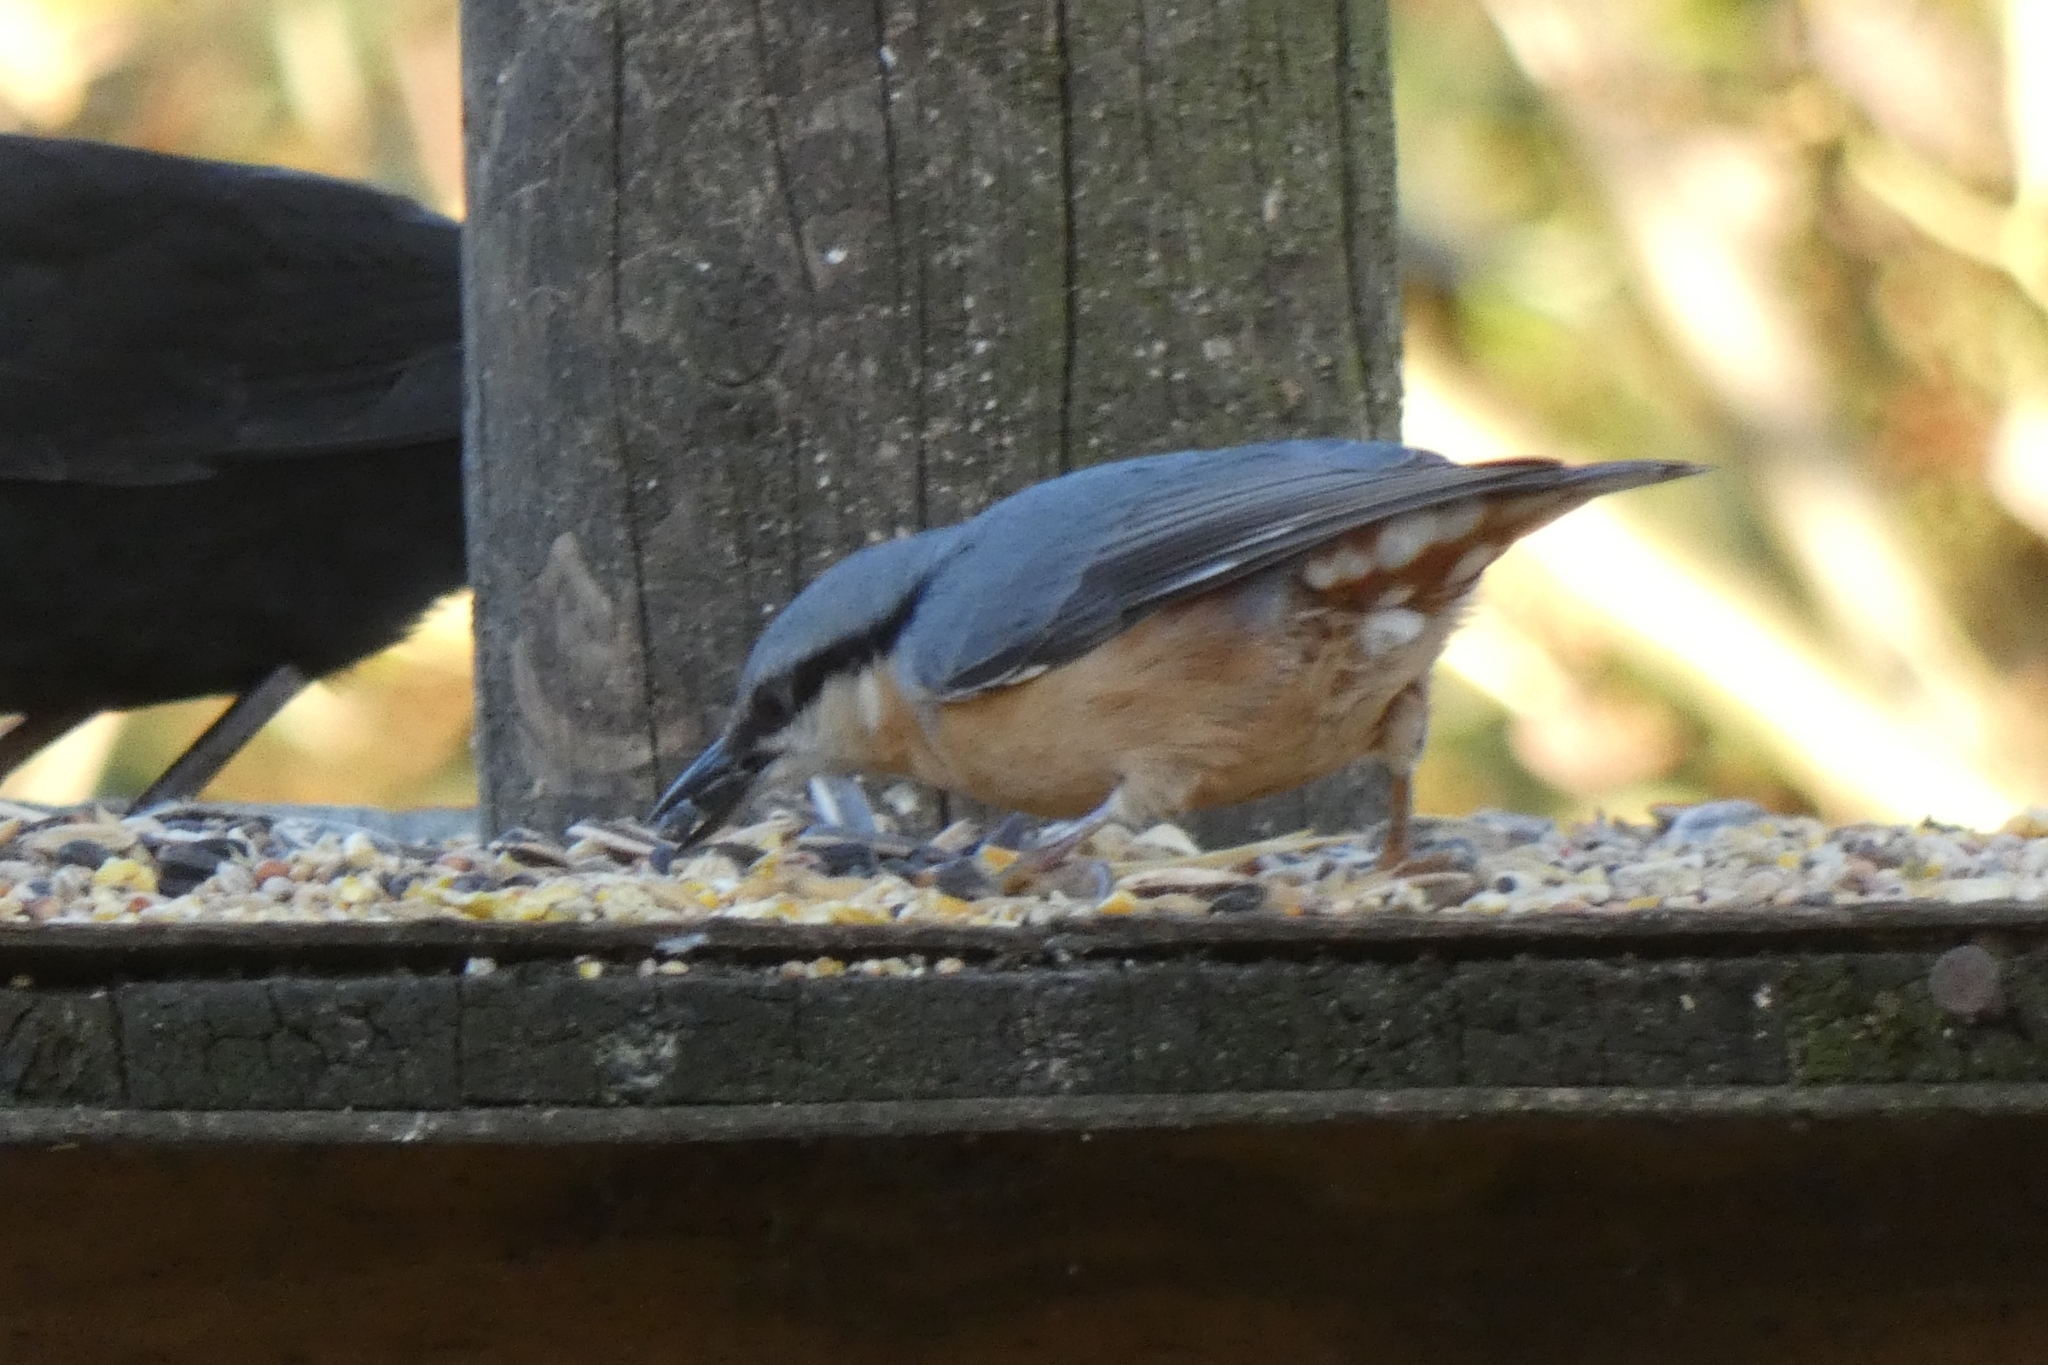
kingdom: Animalia
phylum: Chordata
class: Aves
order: Passeriformes
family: Sittidae
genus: Sitta
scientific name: Sitta europaea
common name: Eurasian nuthatch
